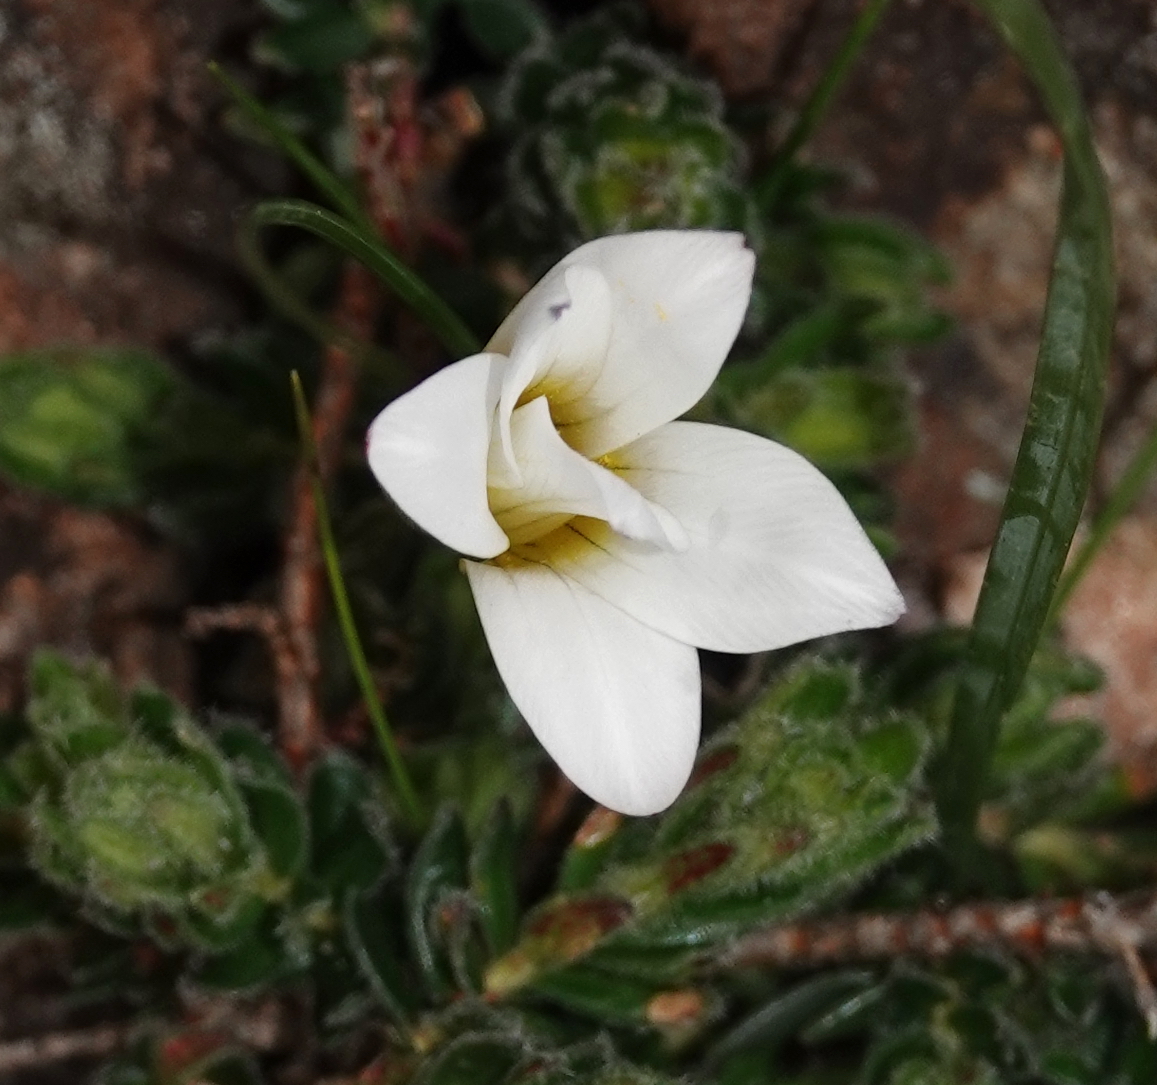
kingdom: Plantae
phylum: Tracheophyta
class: Liliopsida
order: Asparagales
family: Iridaceae
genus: Romulea
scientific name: Romulea flava
